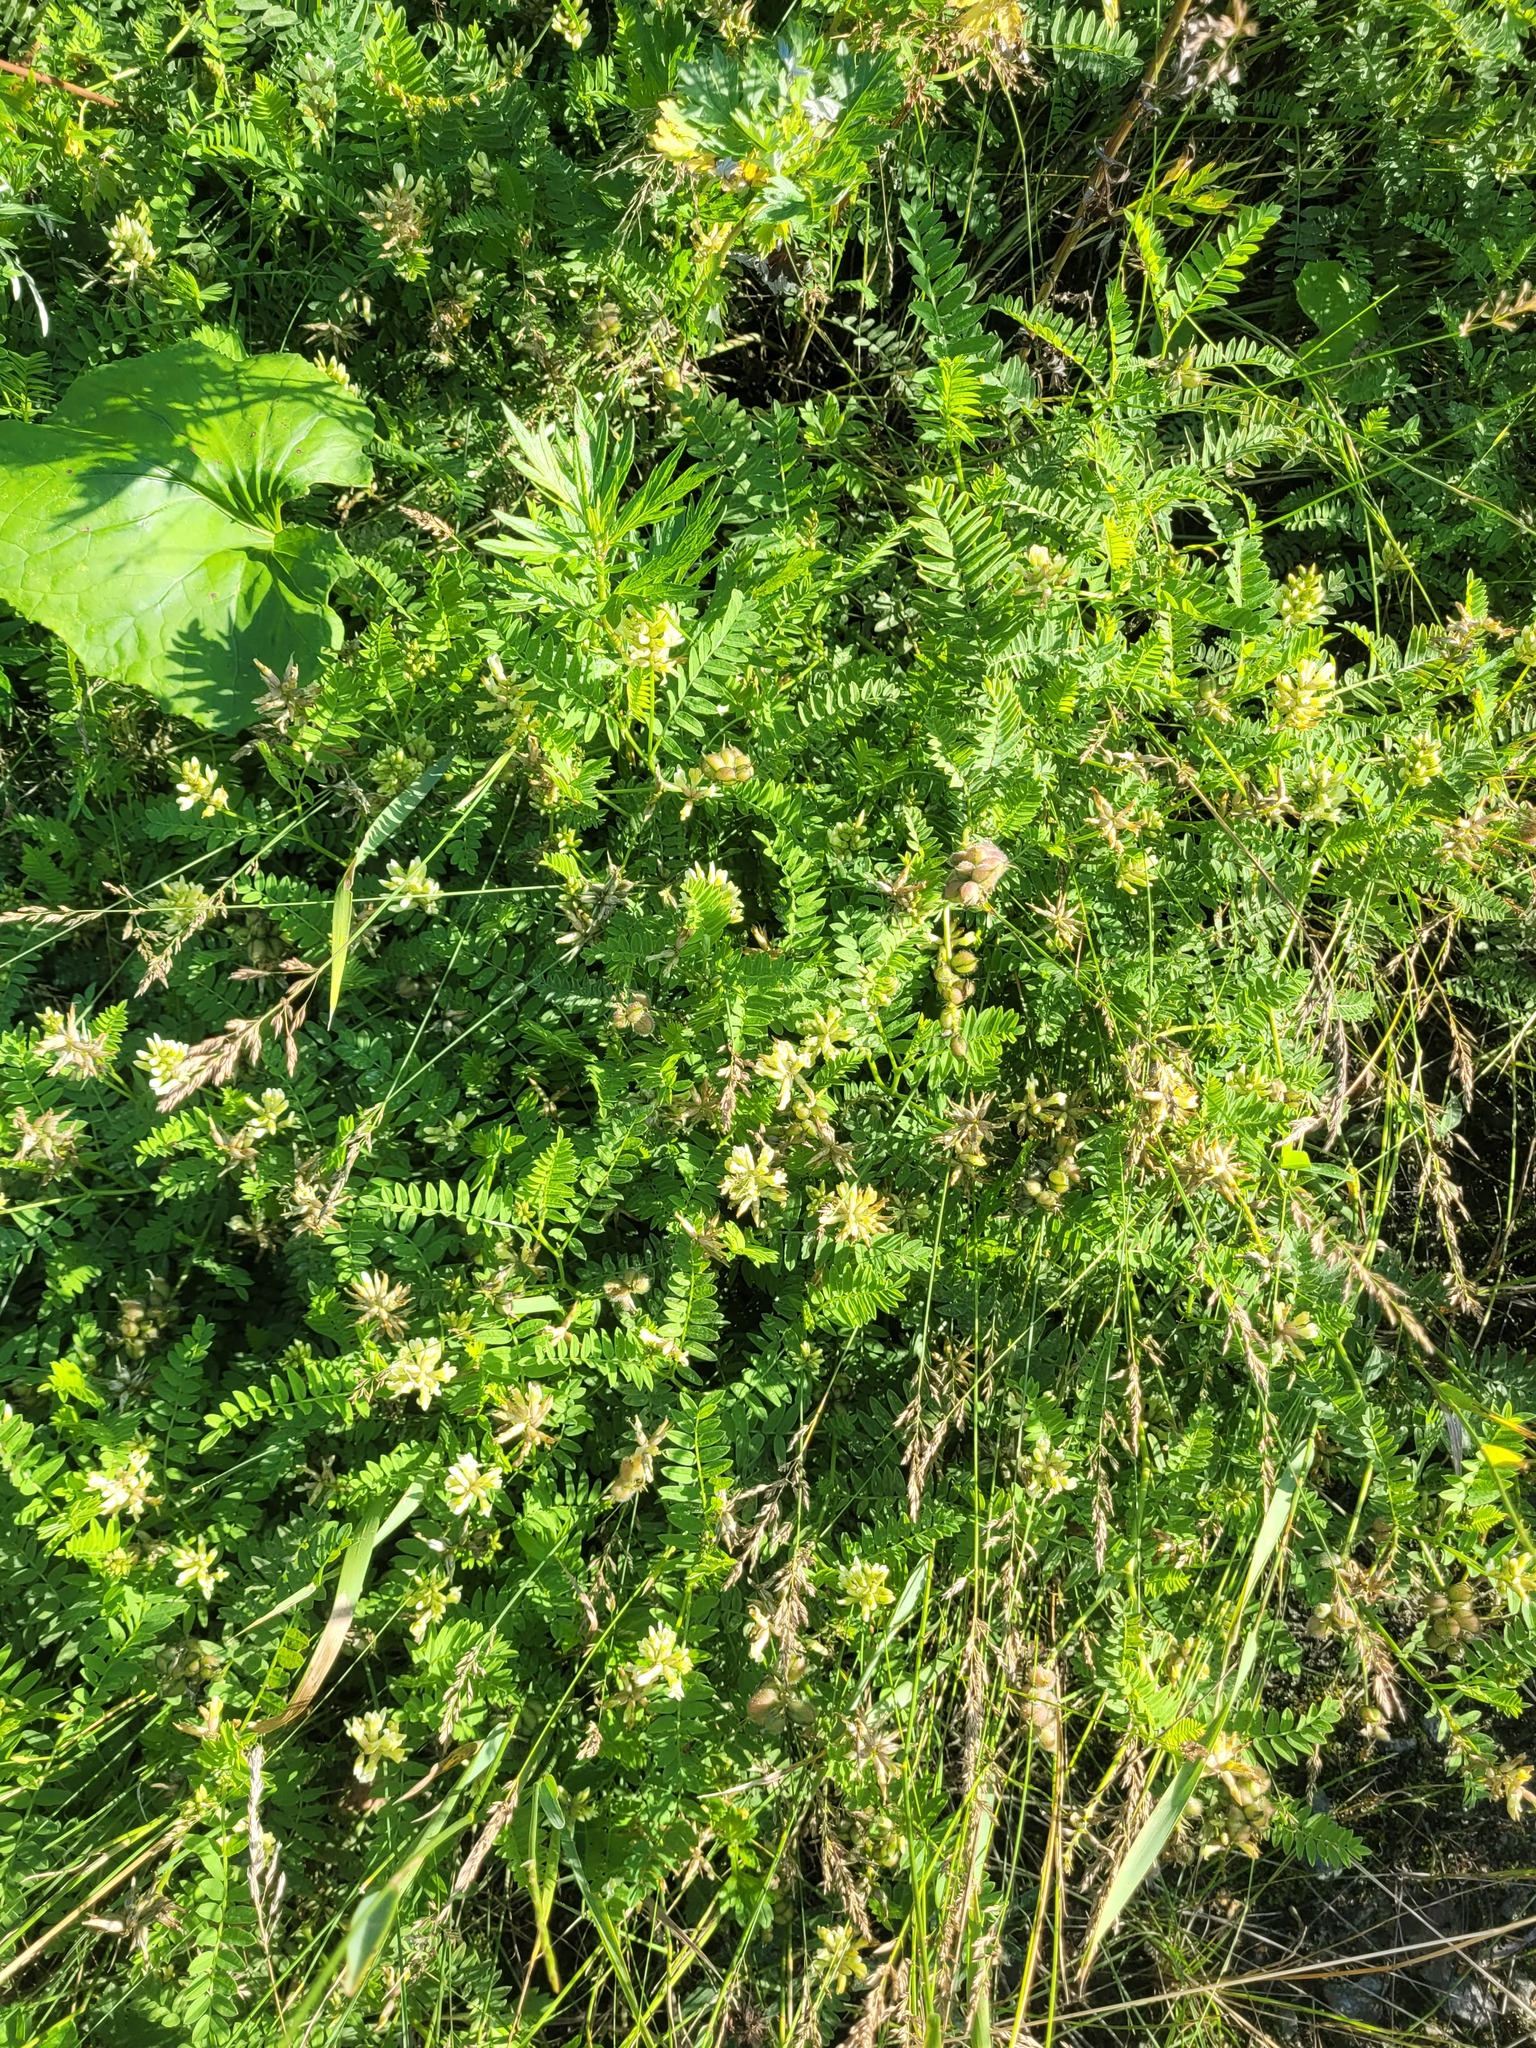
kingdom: Plantae
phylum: Tracheophyta
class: Magnoliopsida
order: Fabales
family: Fabaceae
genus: Astragalus
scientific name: Astragalus cicer
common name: Chick-pea milk-vetch
